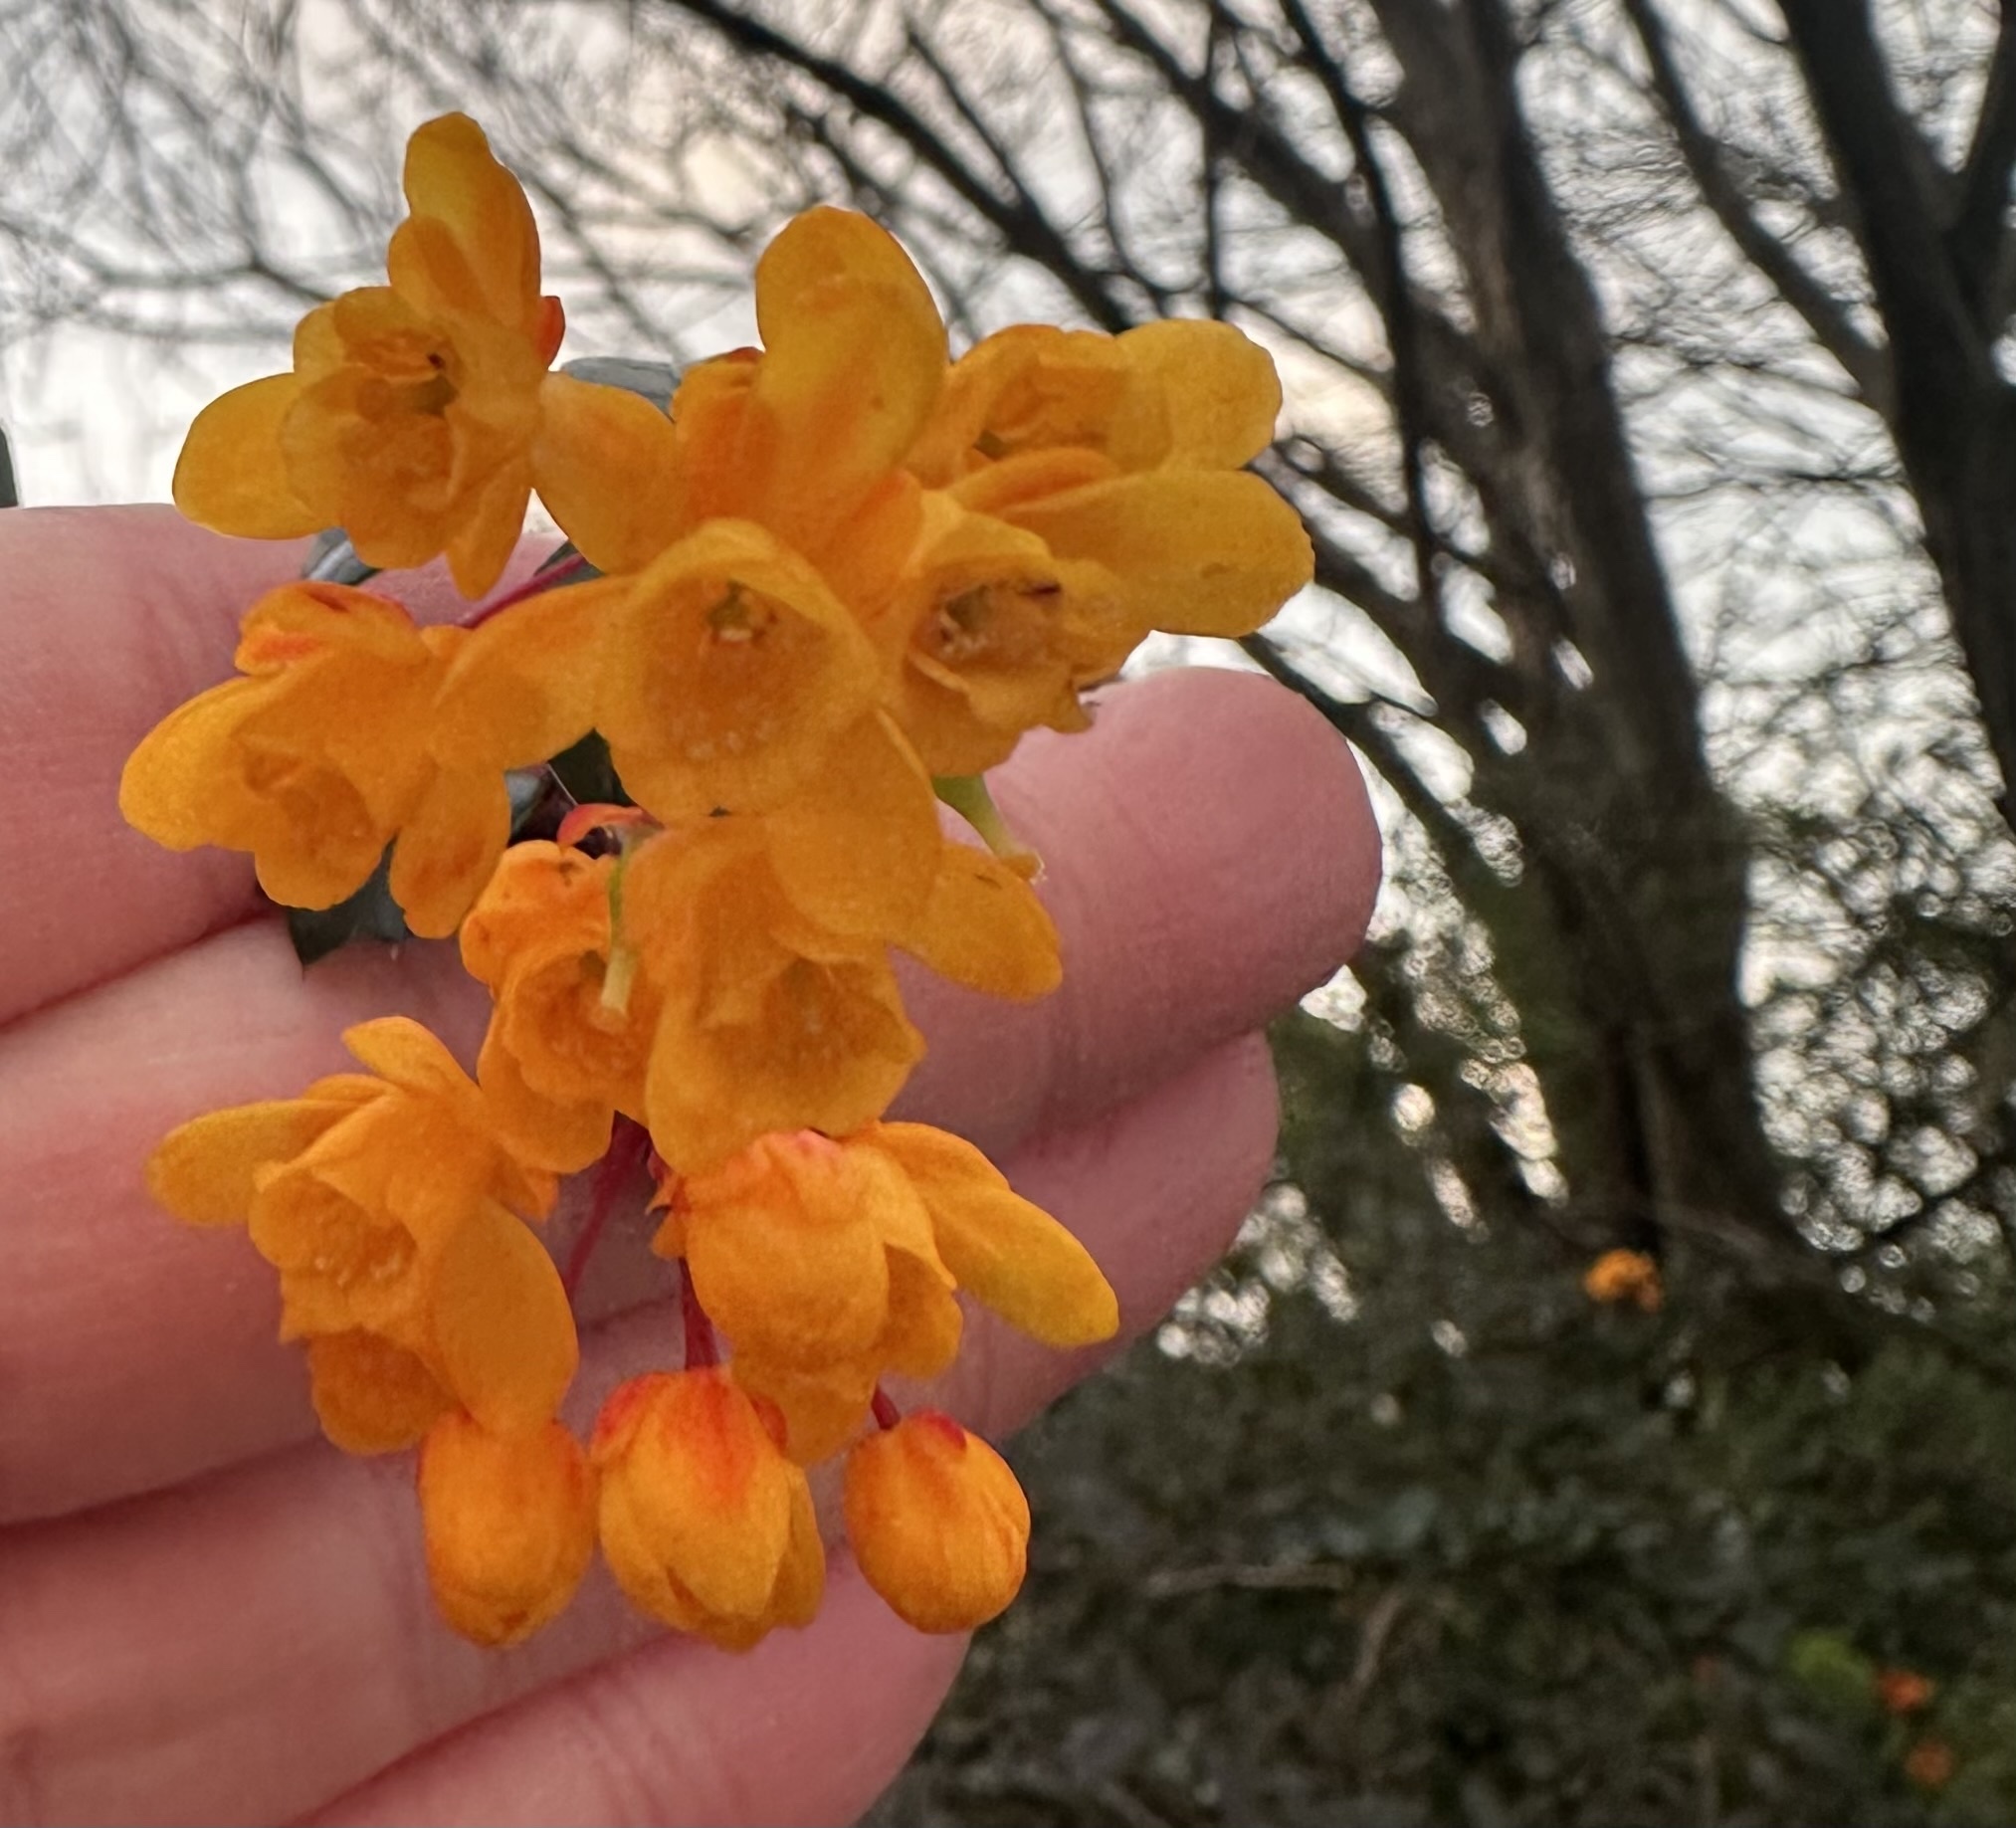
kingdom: Plantae
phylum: Tracheophyta
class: Magnoliopsida
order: Ranunculales
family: Berberidaceae
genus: Berberis
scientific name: Berberis darwinii
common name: Darwin's barberry
